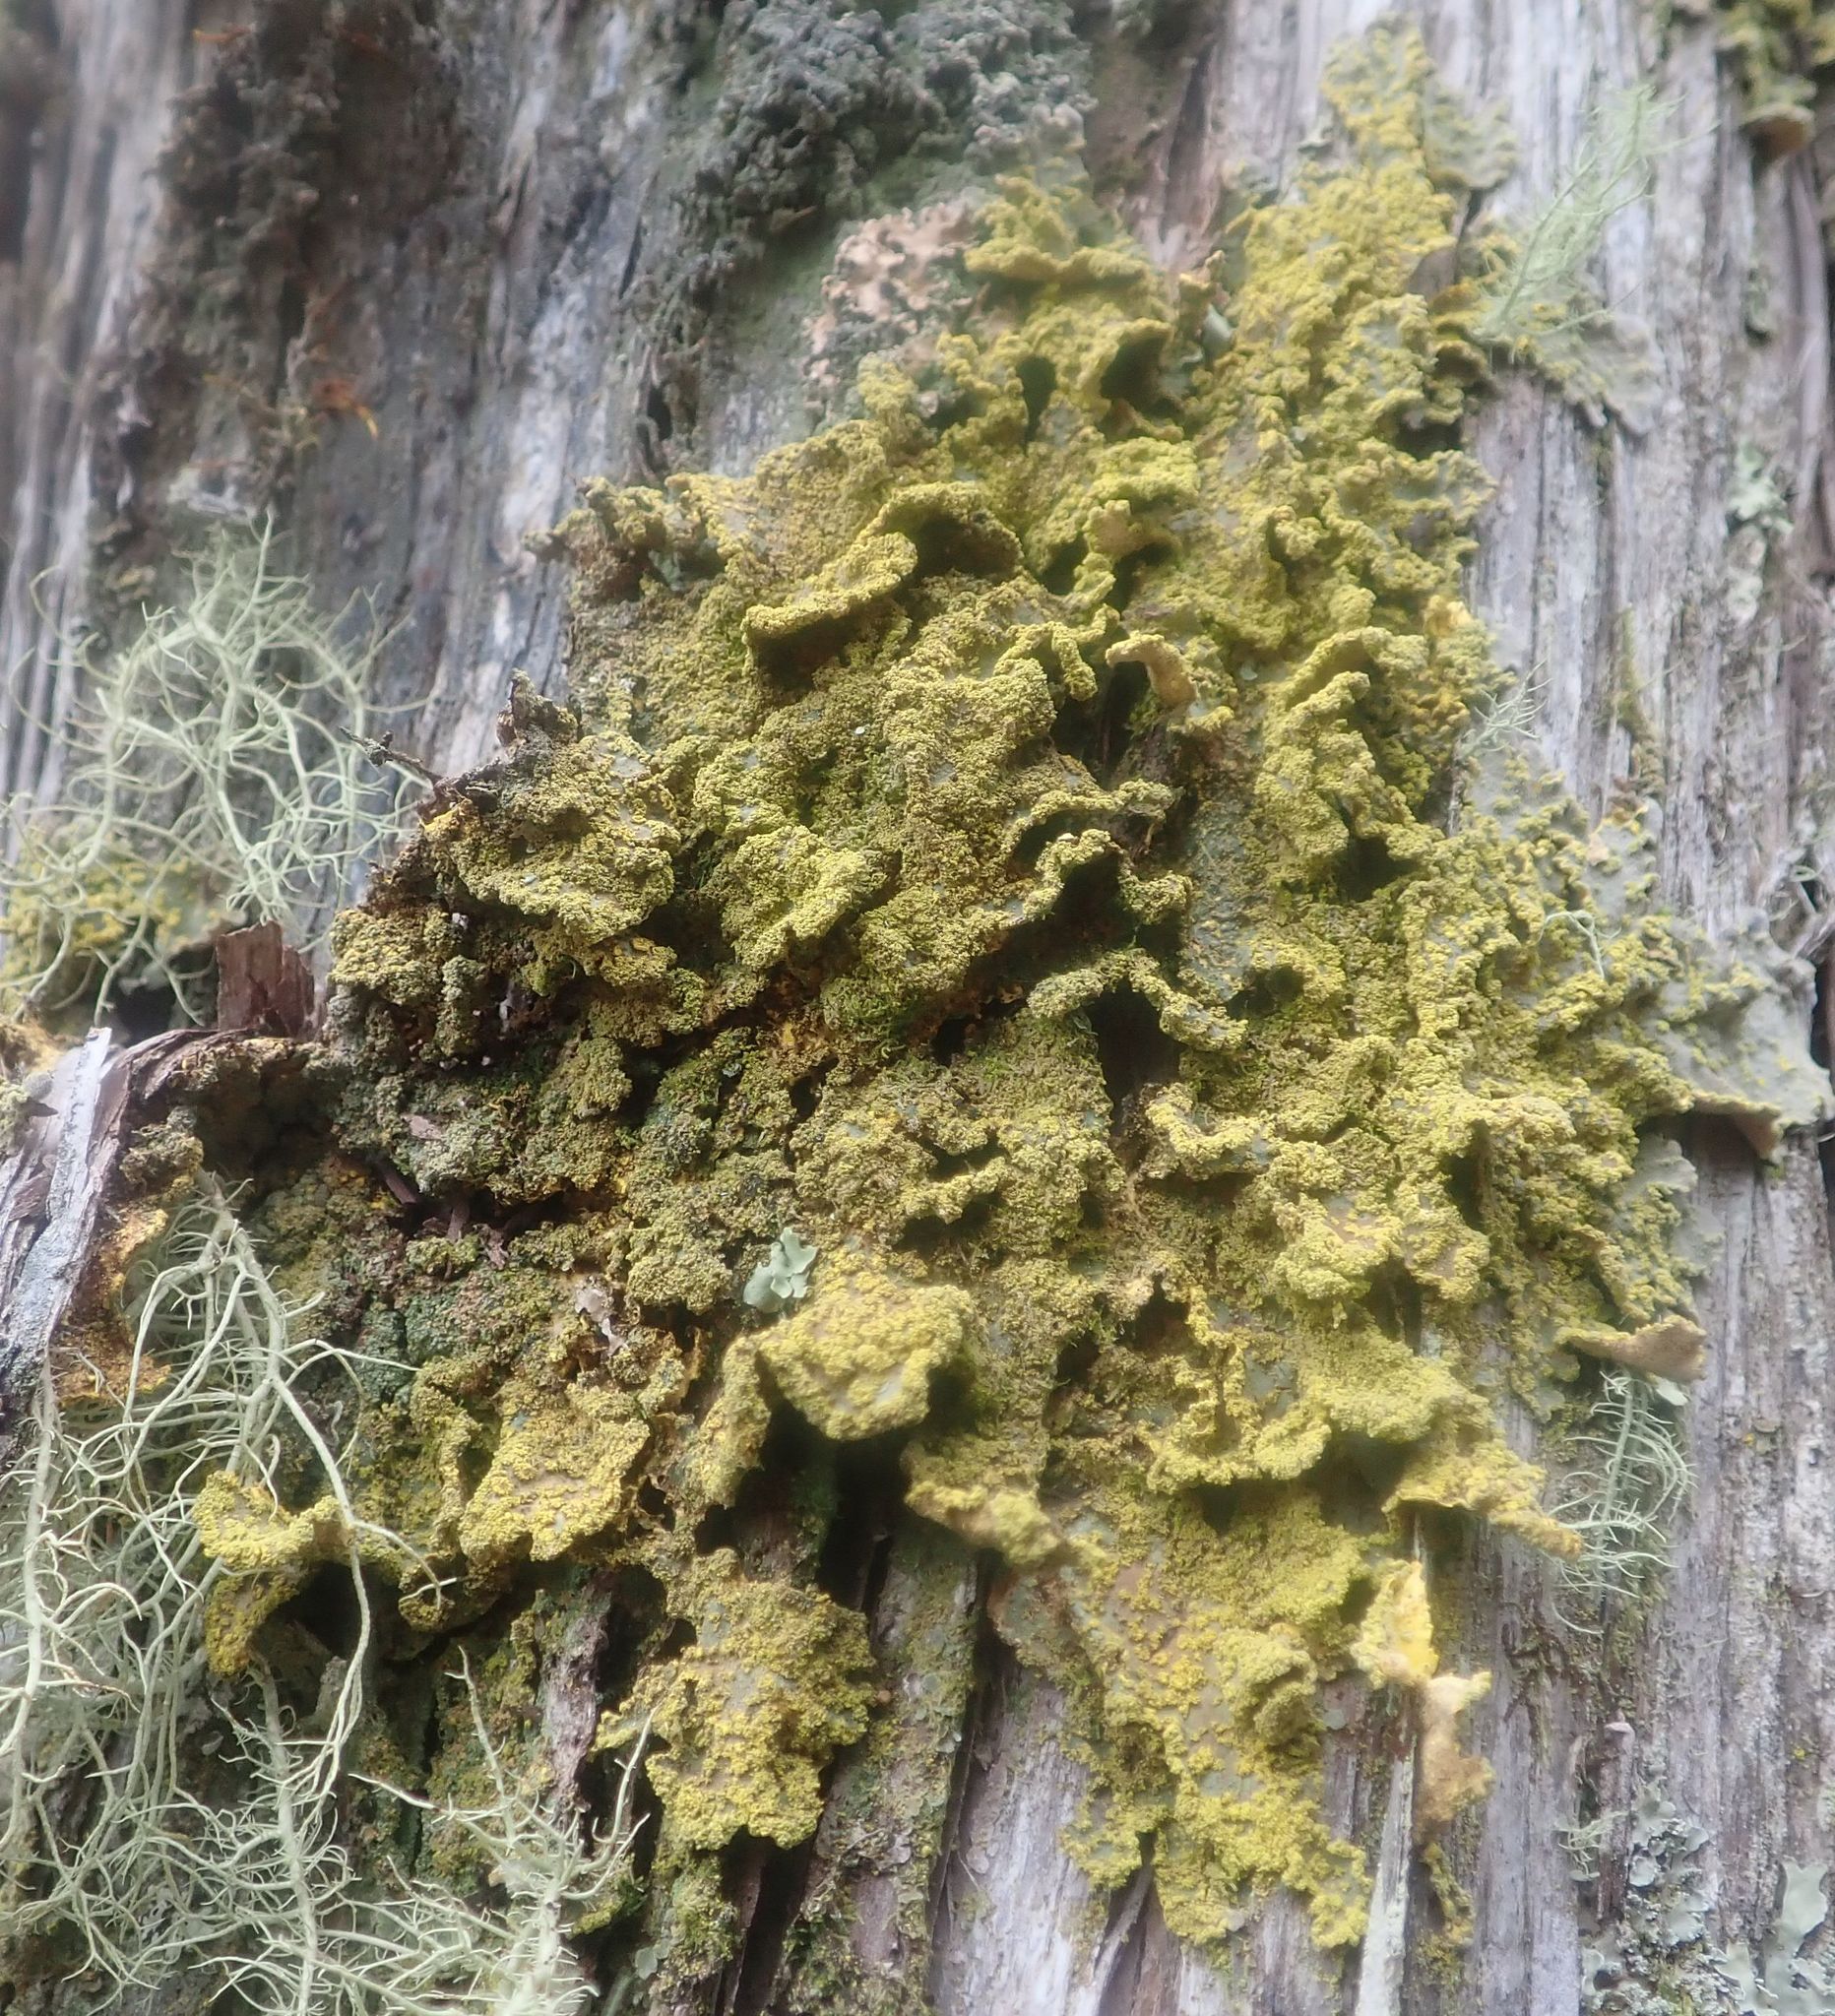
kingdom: Fungi
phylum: Ascomycota
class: Lecanoromycetes
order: Peltigerales
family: Lobariaceae
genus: Pseudocyphellaria
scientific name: Pseudocyphellaria rubella
